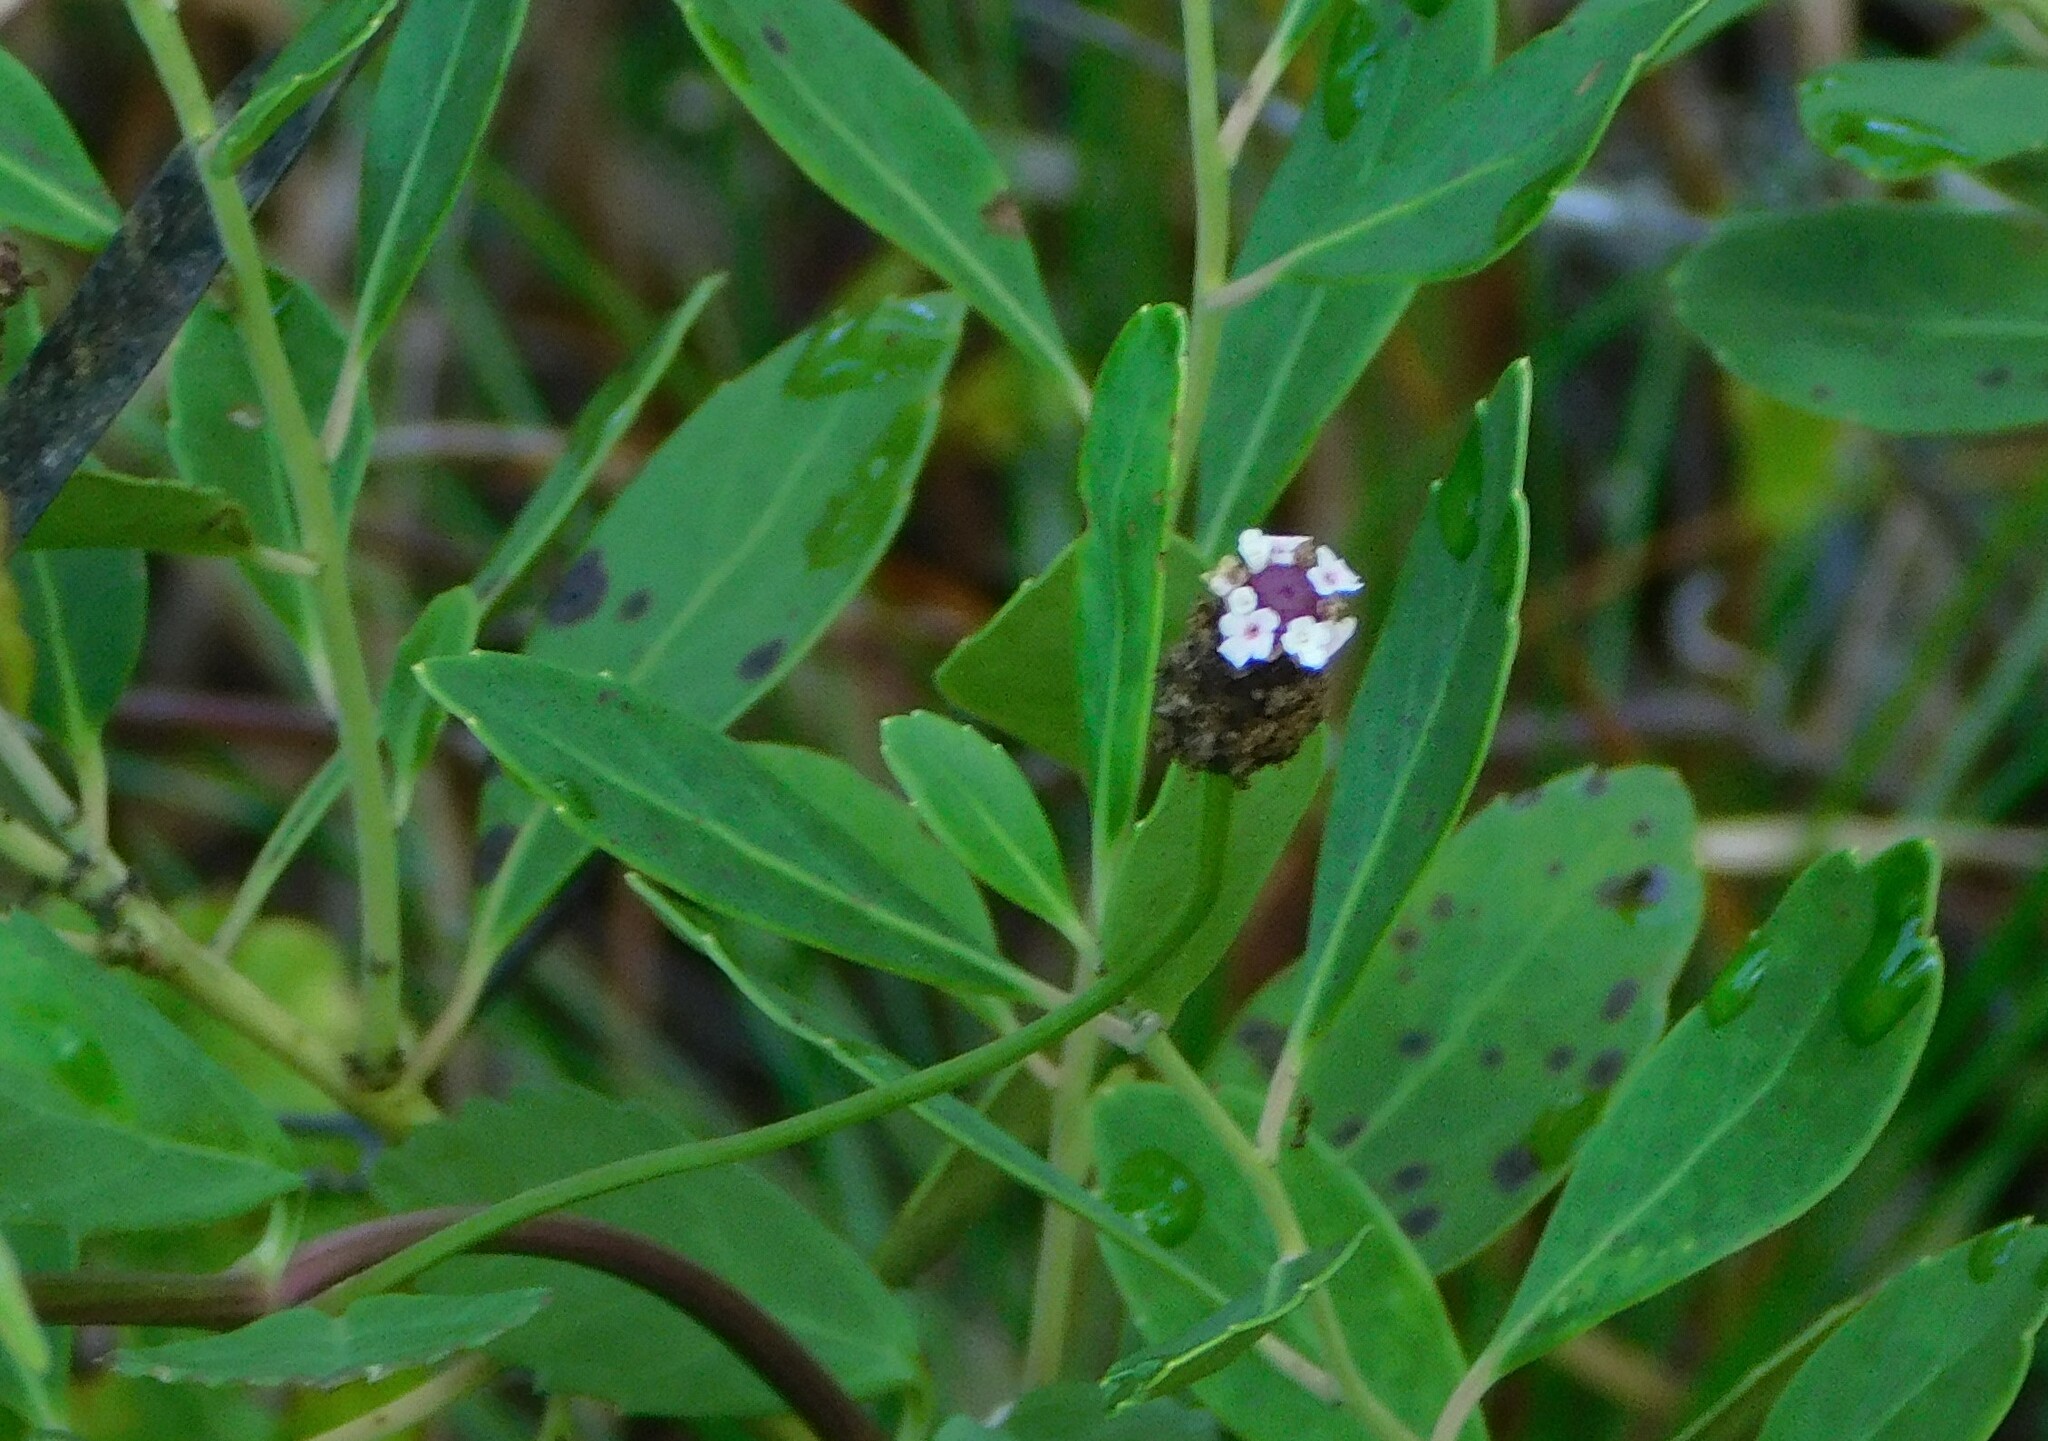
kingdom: Plantae
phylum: Tracheophyta
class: Magnoliopsida
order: Lamiales
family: Verbenaceae
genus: Phyla
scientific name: Phyla nodiflora
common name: Frogfruit
